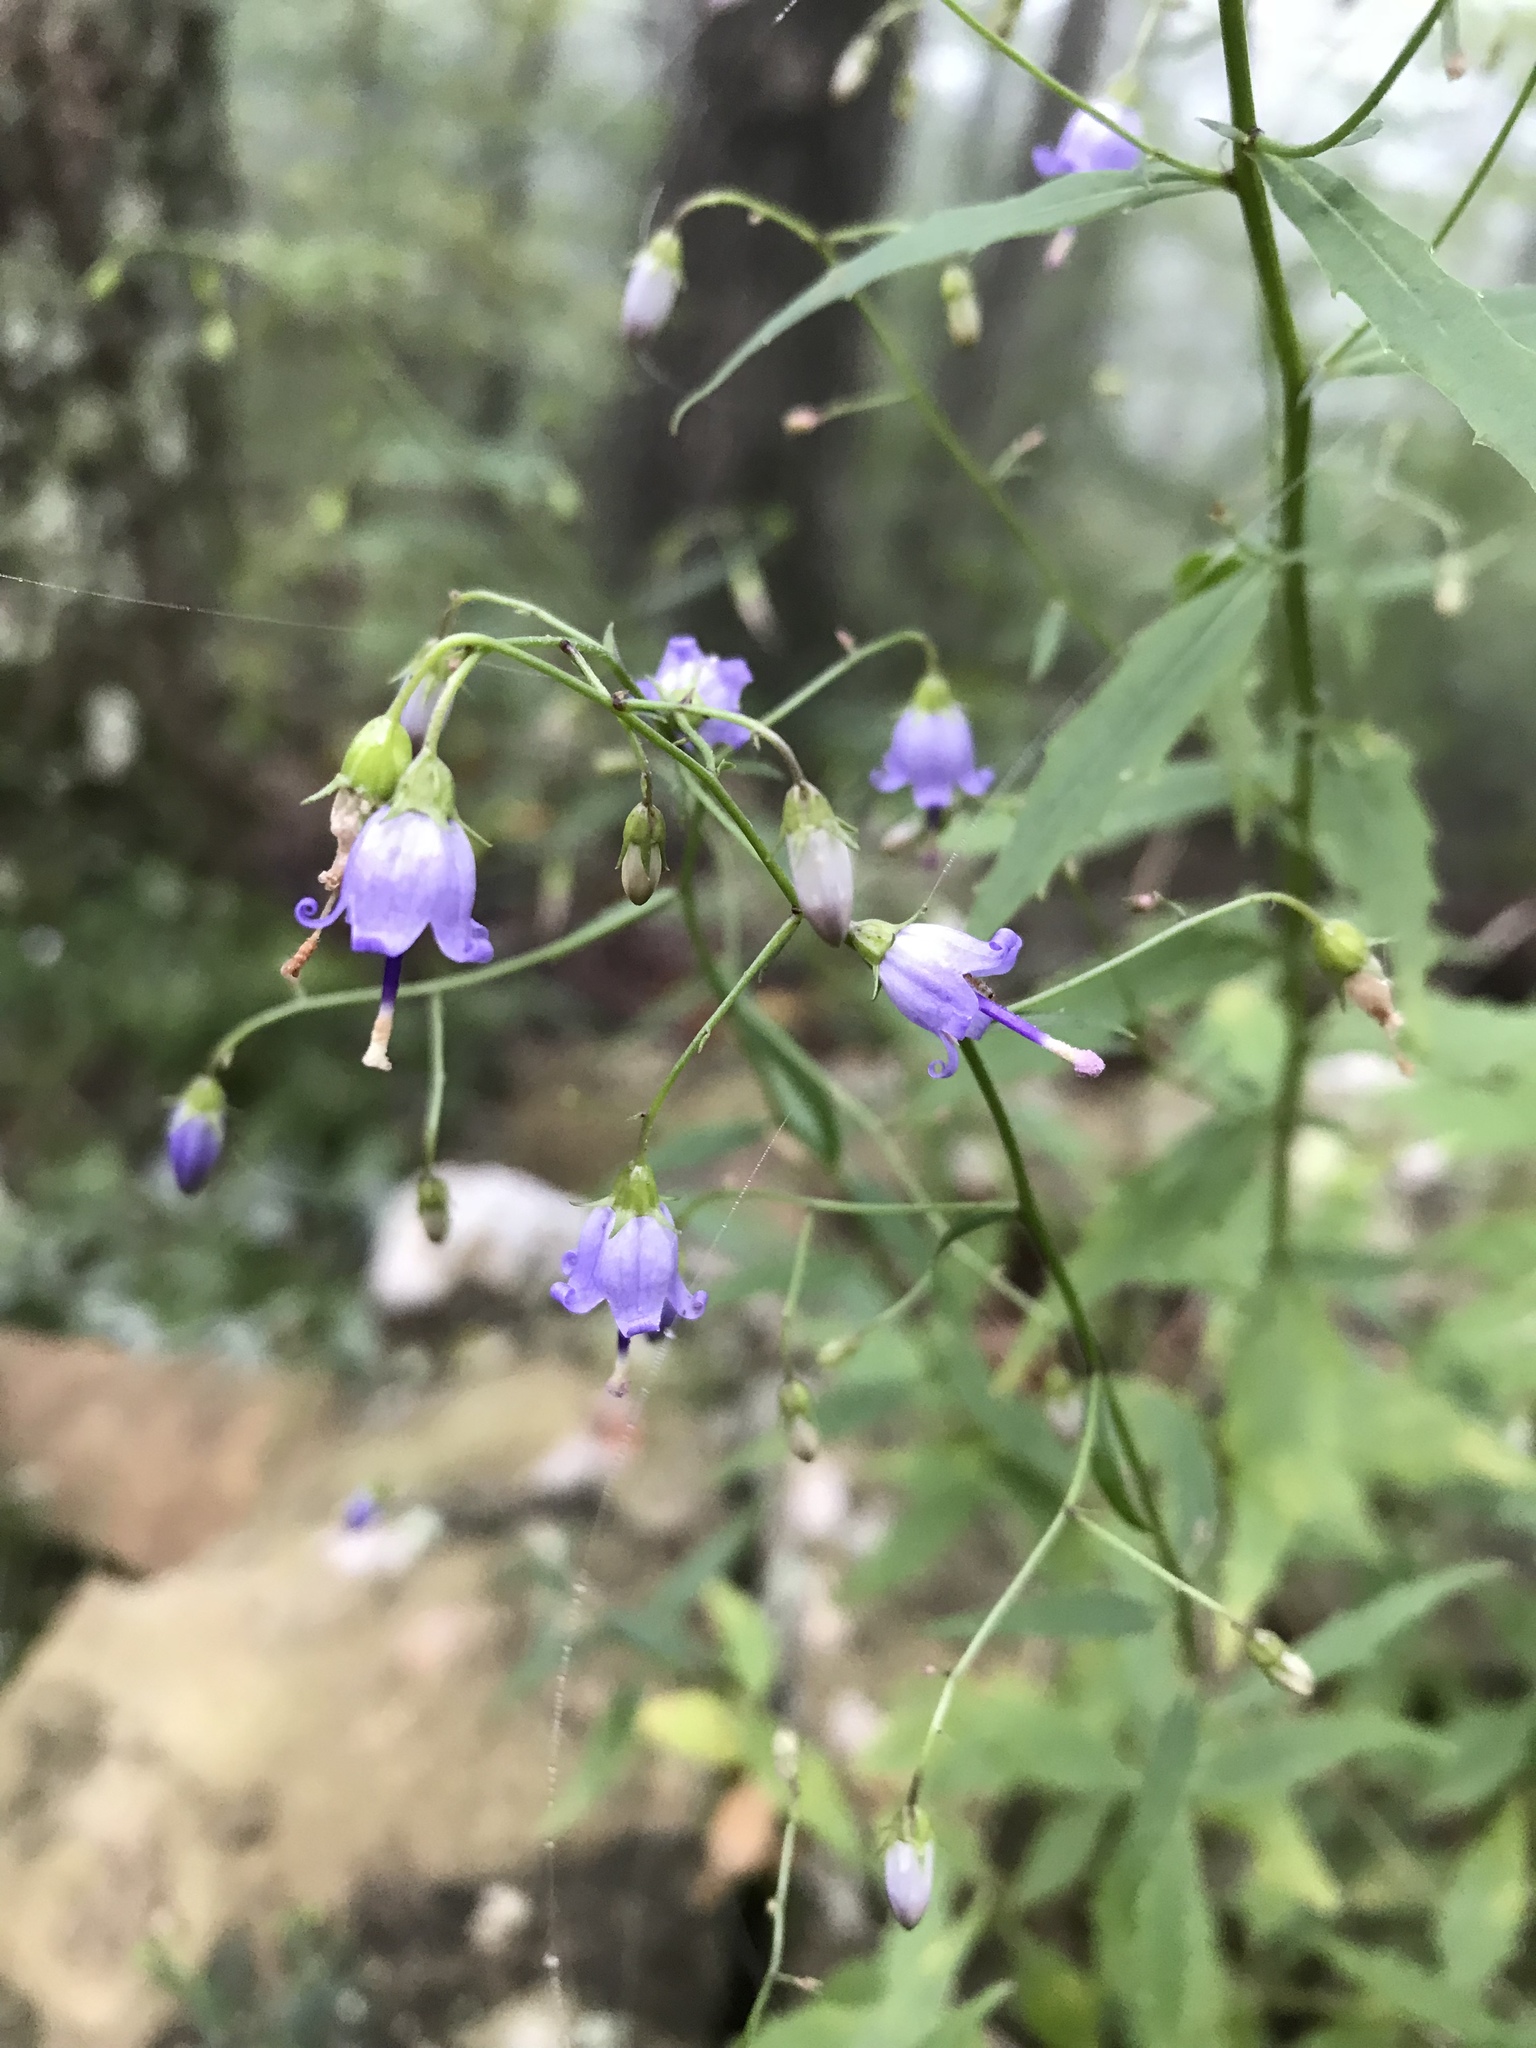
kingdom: Plantae
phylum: Tracheophyta
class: Magnoliopsida
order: Asterales
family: Campanulaceae
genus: Campanula
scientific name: Campanula divaricata
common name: Appalachian bellflower
